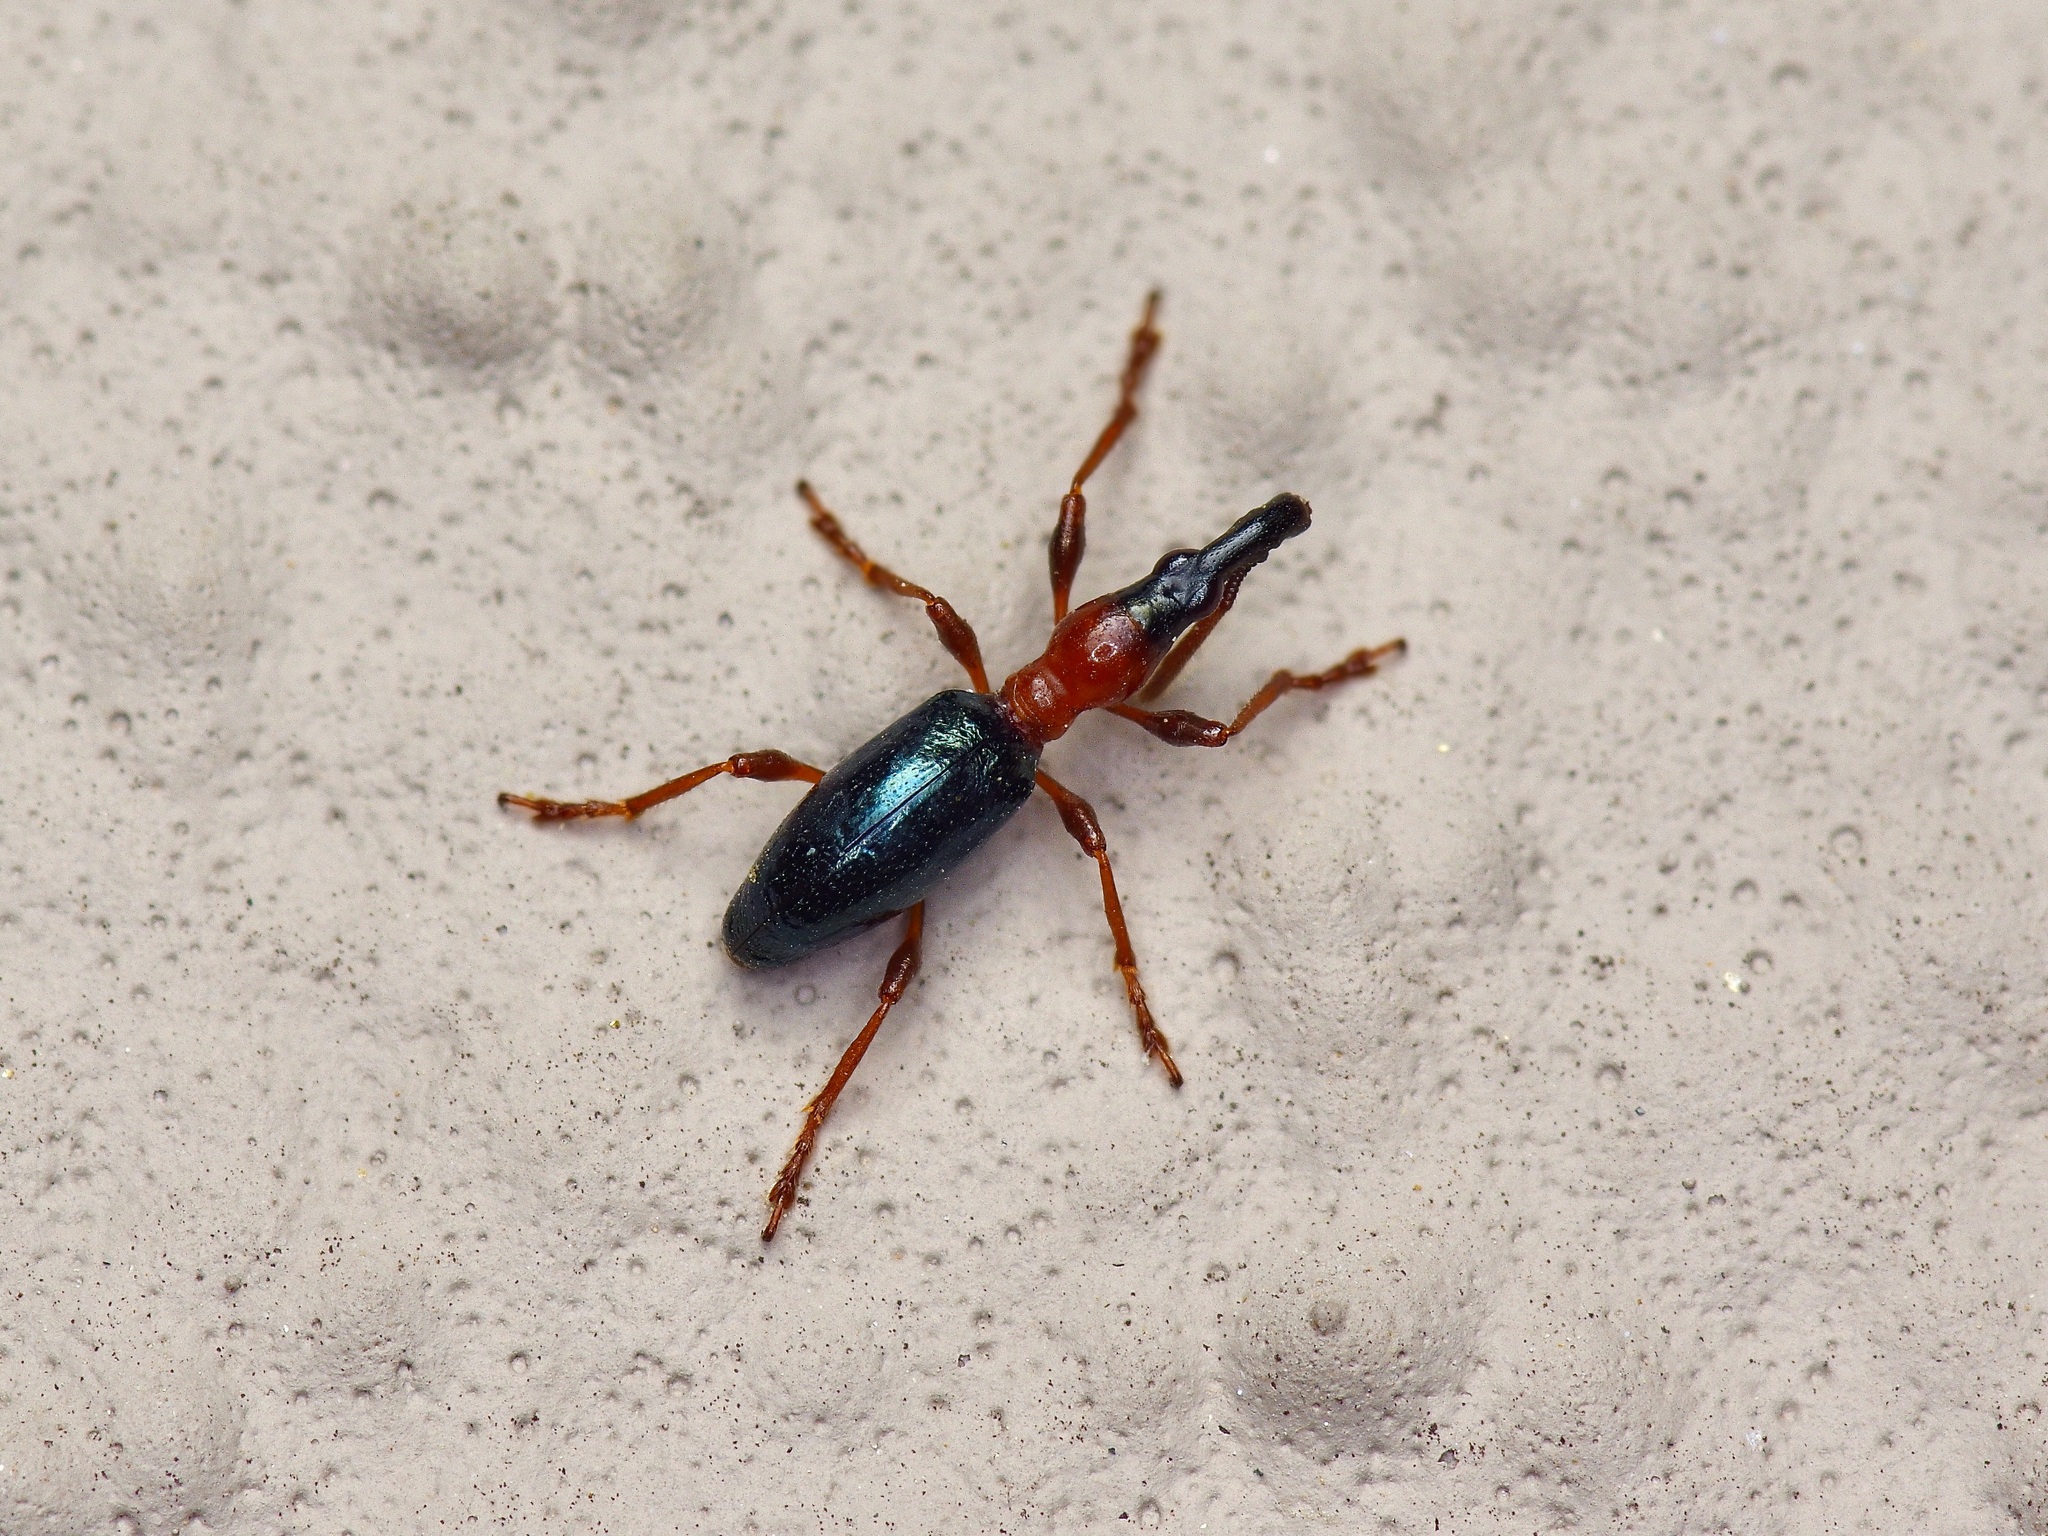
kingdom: Animalia
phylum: Arthropoda
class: Insecta
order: Coleoptera
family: Brentidae
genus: Cylas
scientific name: Cylas formicarius
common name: Sweetpotato weevil
